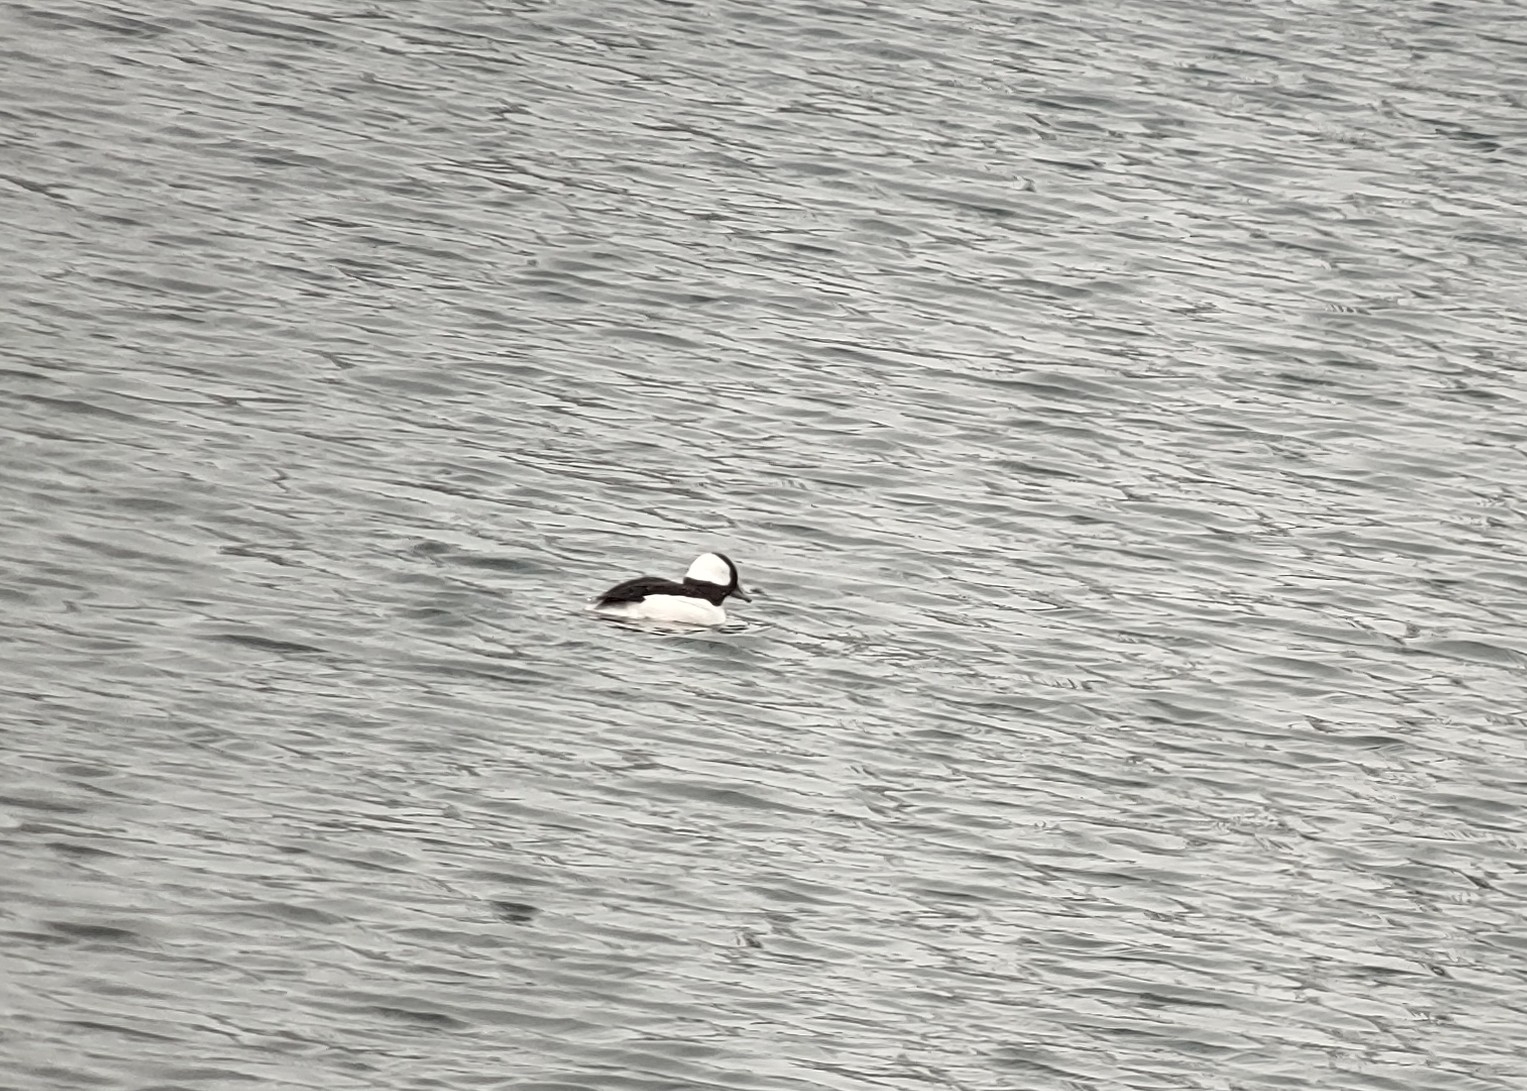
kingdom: Animalia
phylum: Chordata
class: Aves
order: Anseriformes
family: Anatidae
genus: Bucephala
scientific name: Bucephala albeola
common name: Bufflehead
